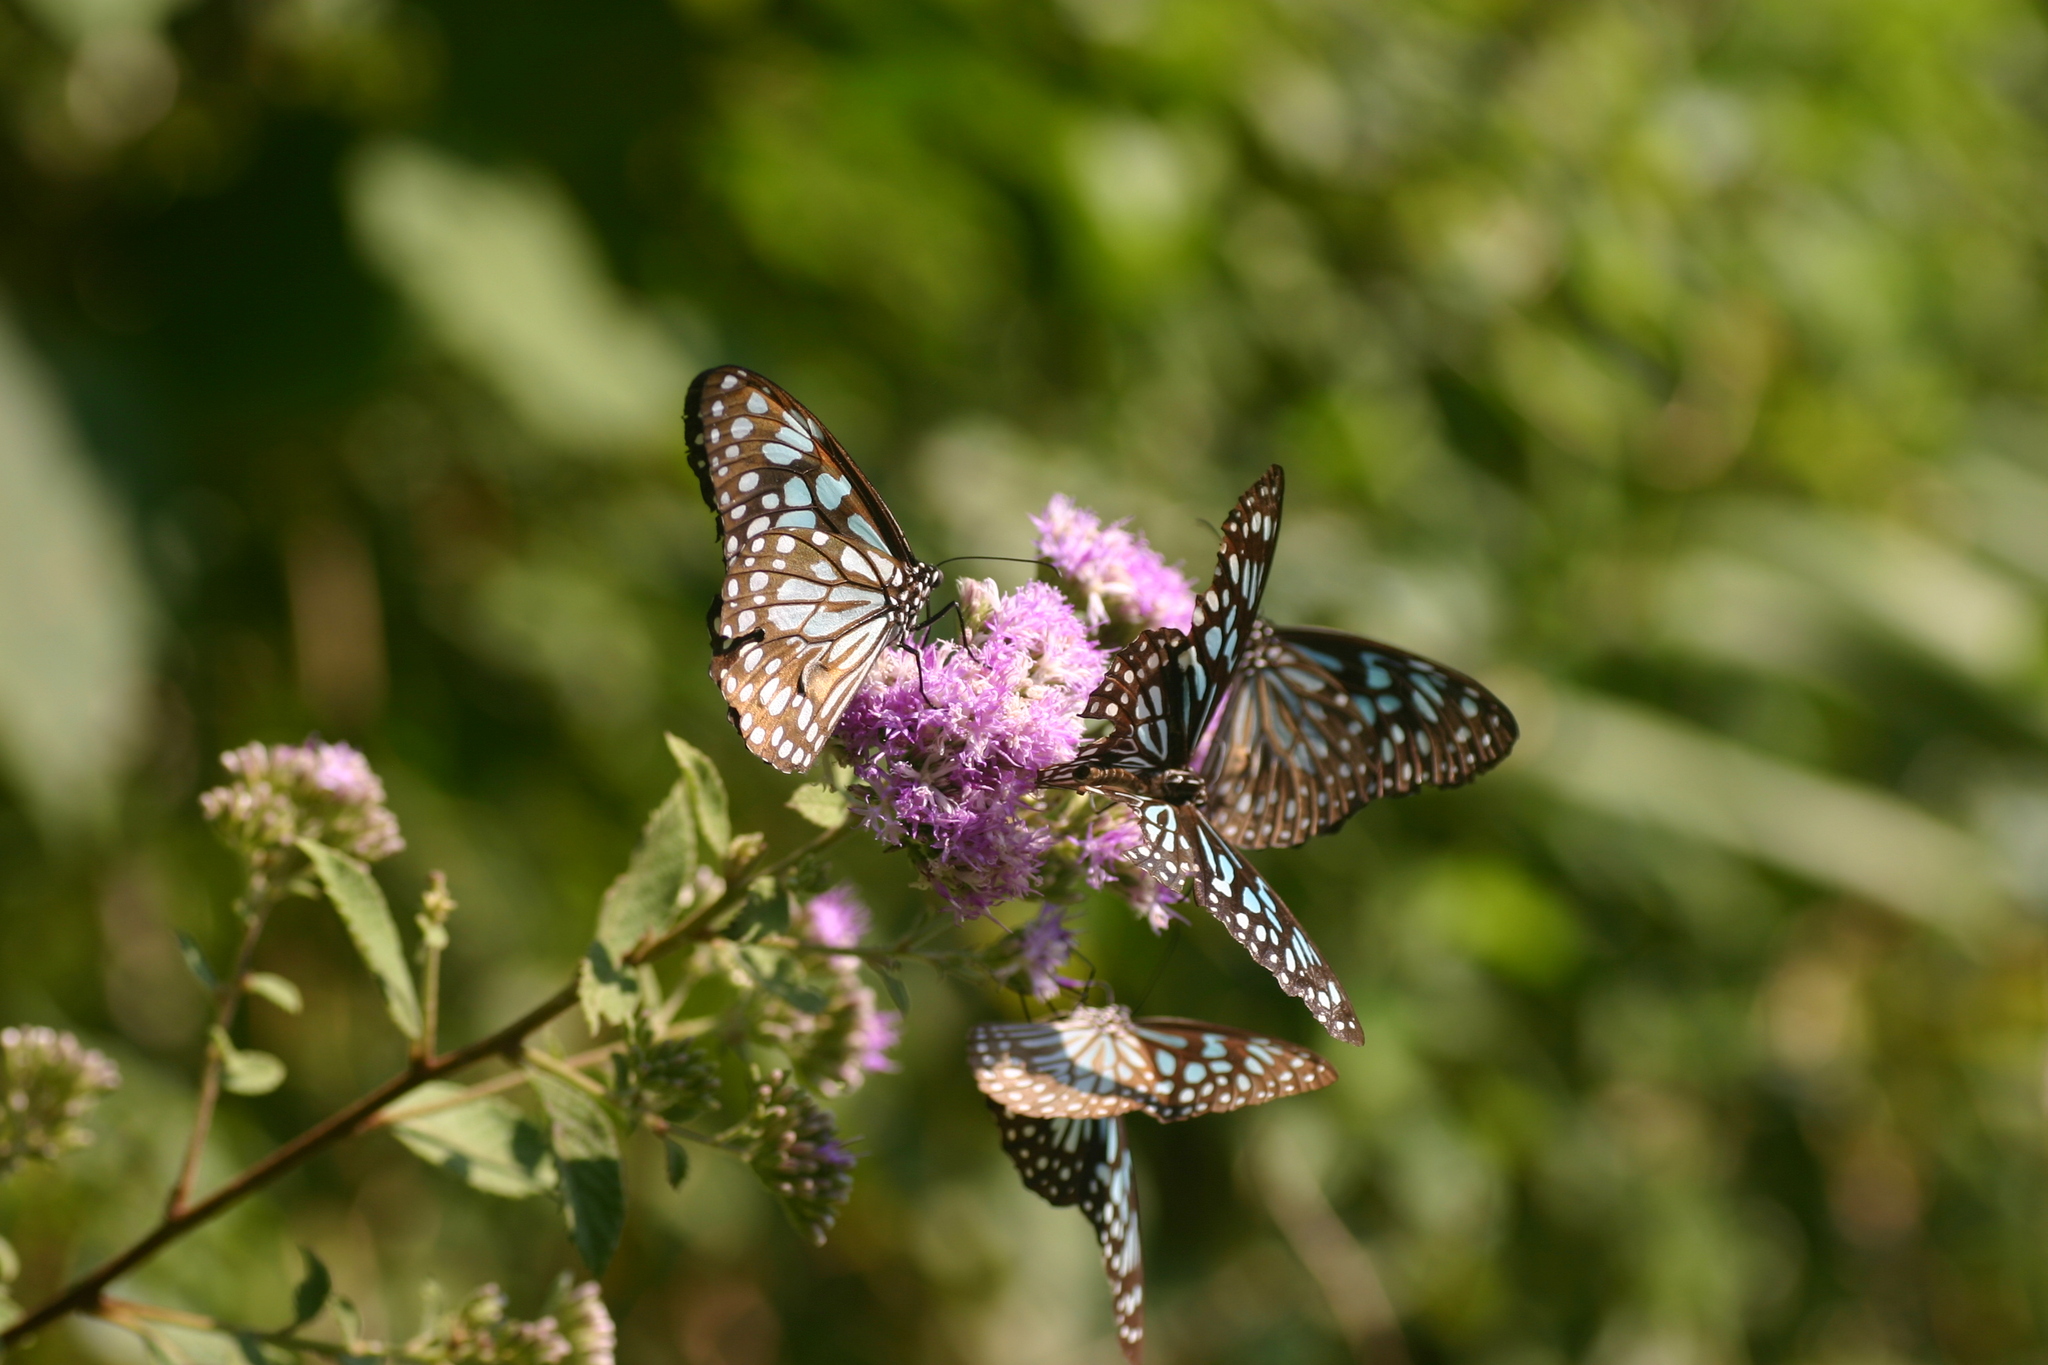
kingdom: Animalia
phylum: Arthropoda
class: Insecta
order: Lepidoptera
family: Nymphalidae
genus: Tirumala
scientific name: Tirumala limniace
